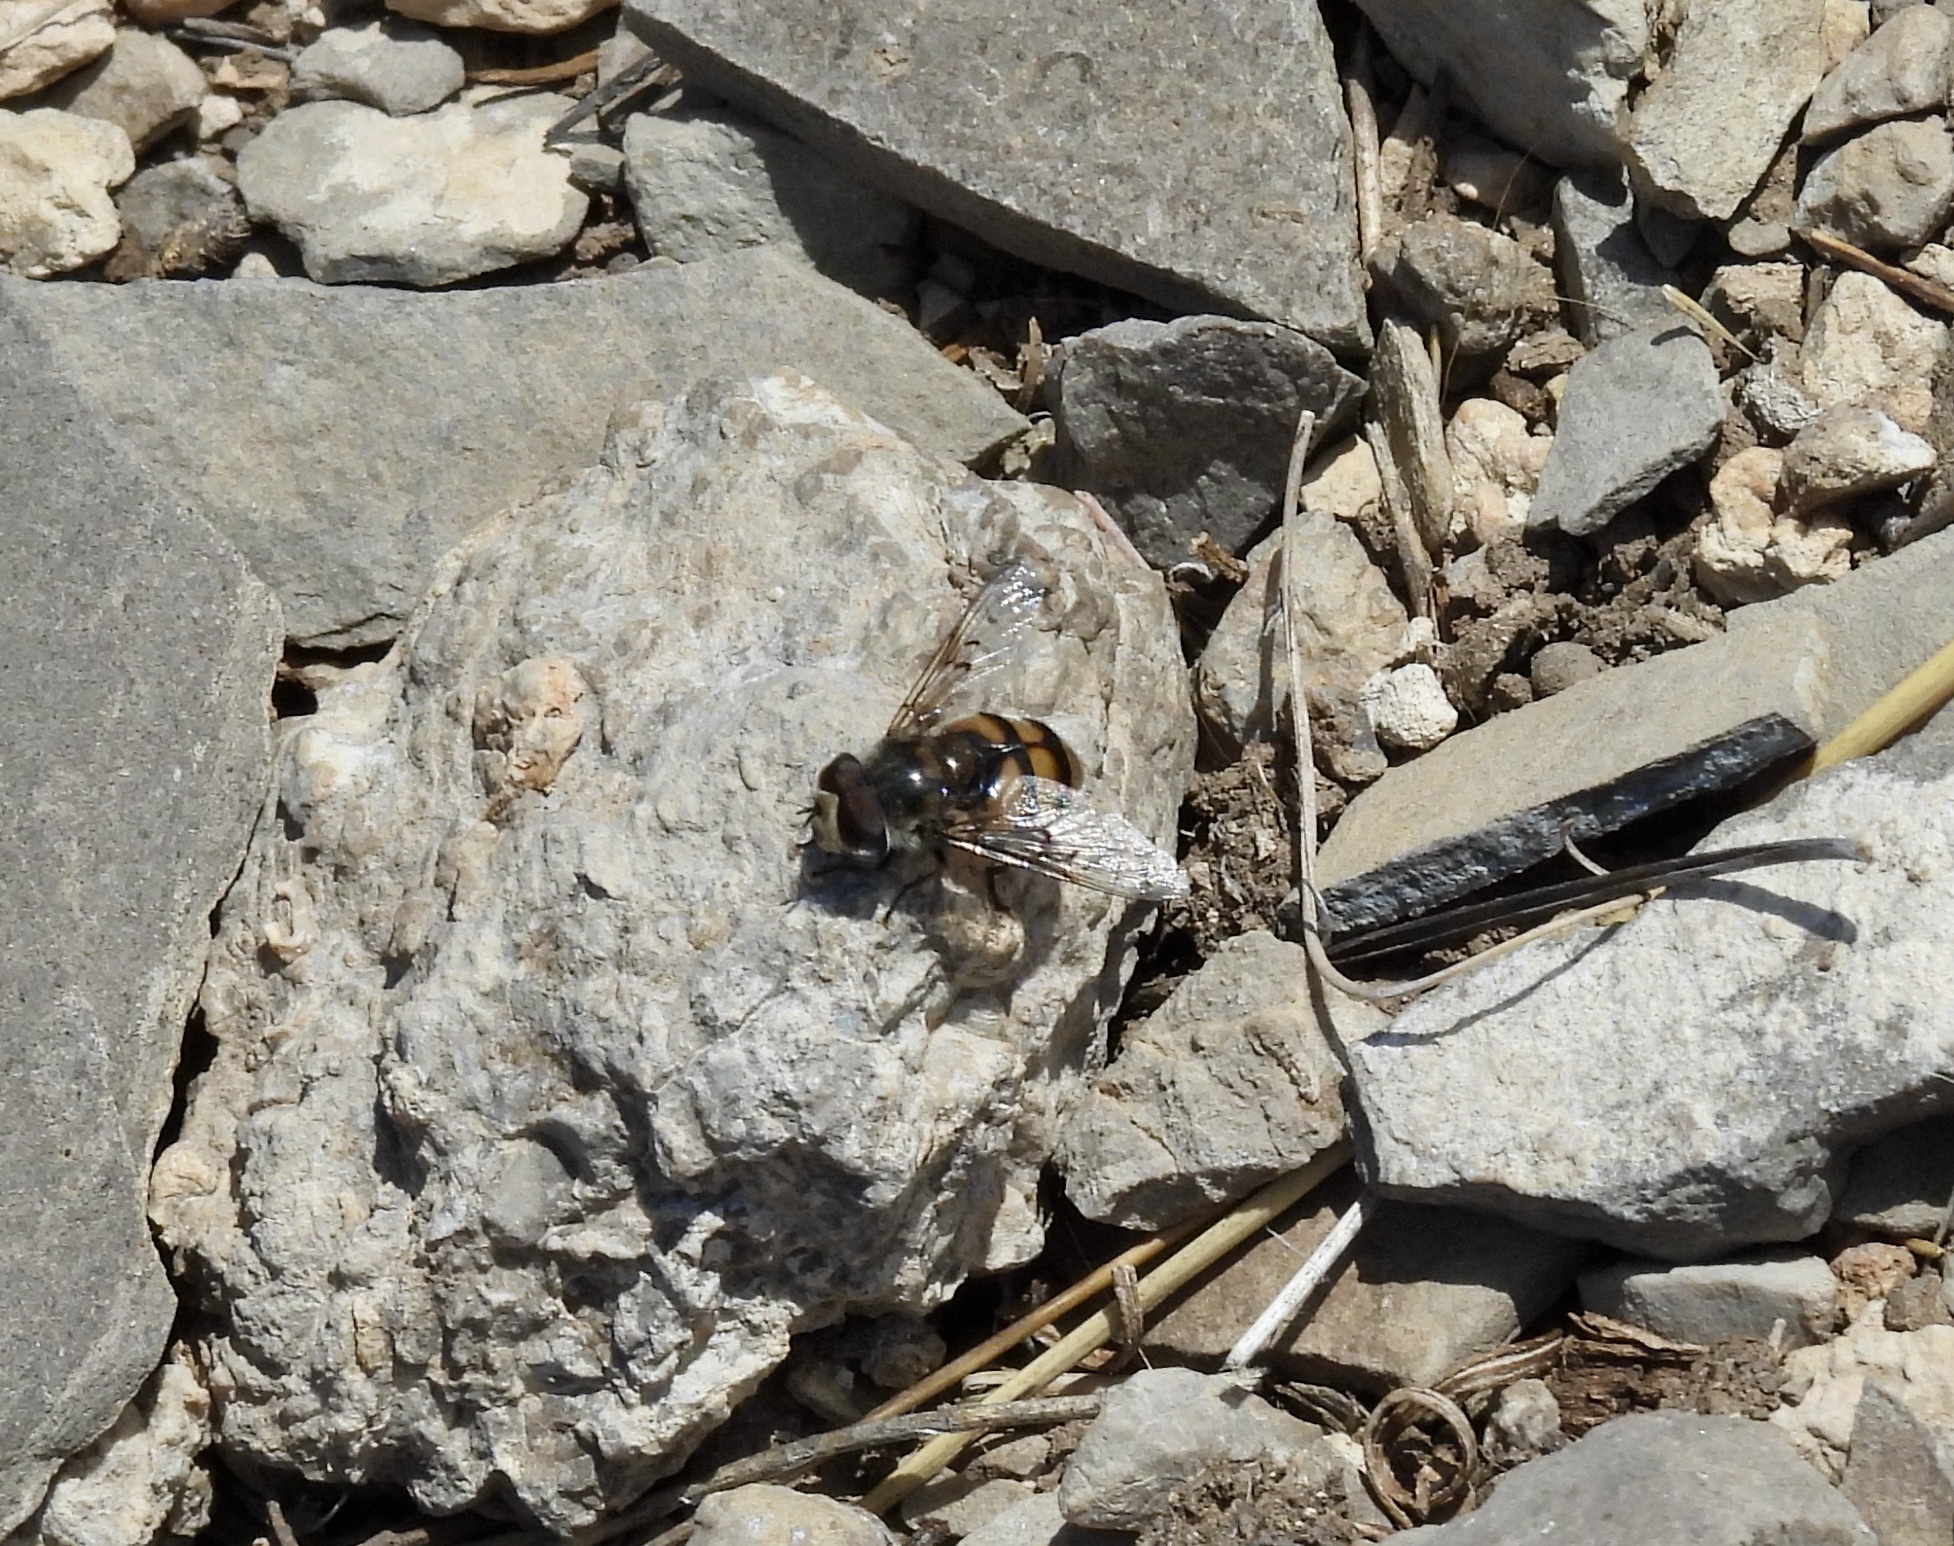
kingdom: Animalia
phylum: Arthropoda
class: Insecta
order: Diptera
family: Syrphidae
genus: Copestylum
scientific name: Copestylum avidum
